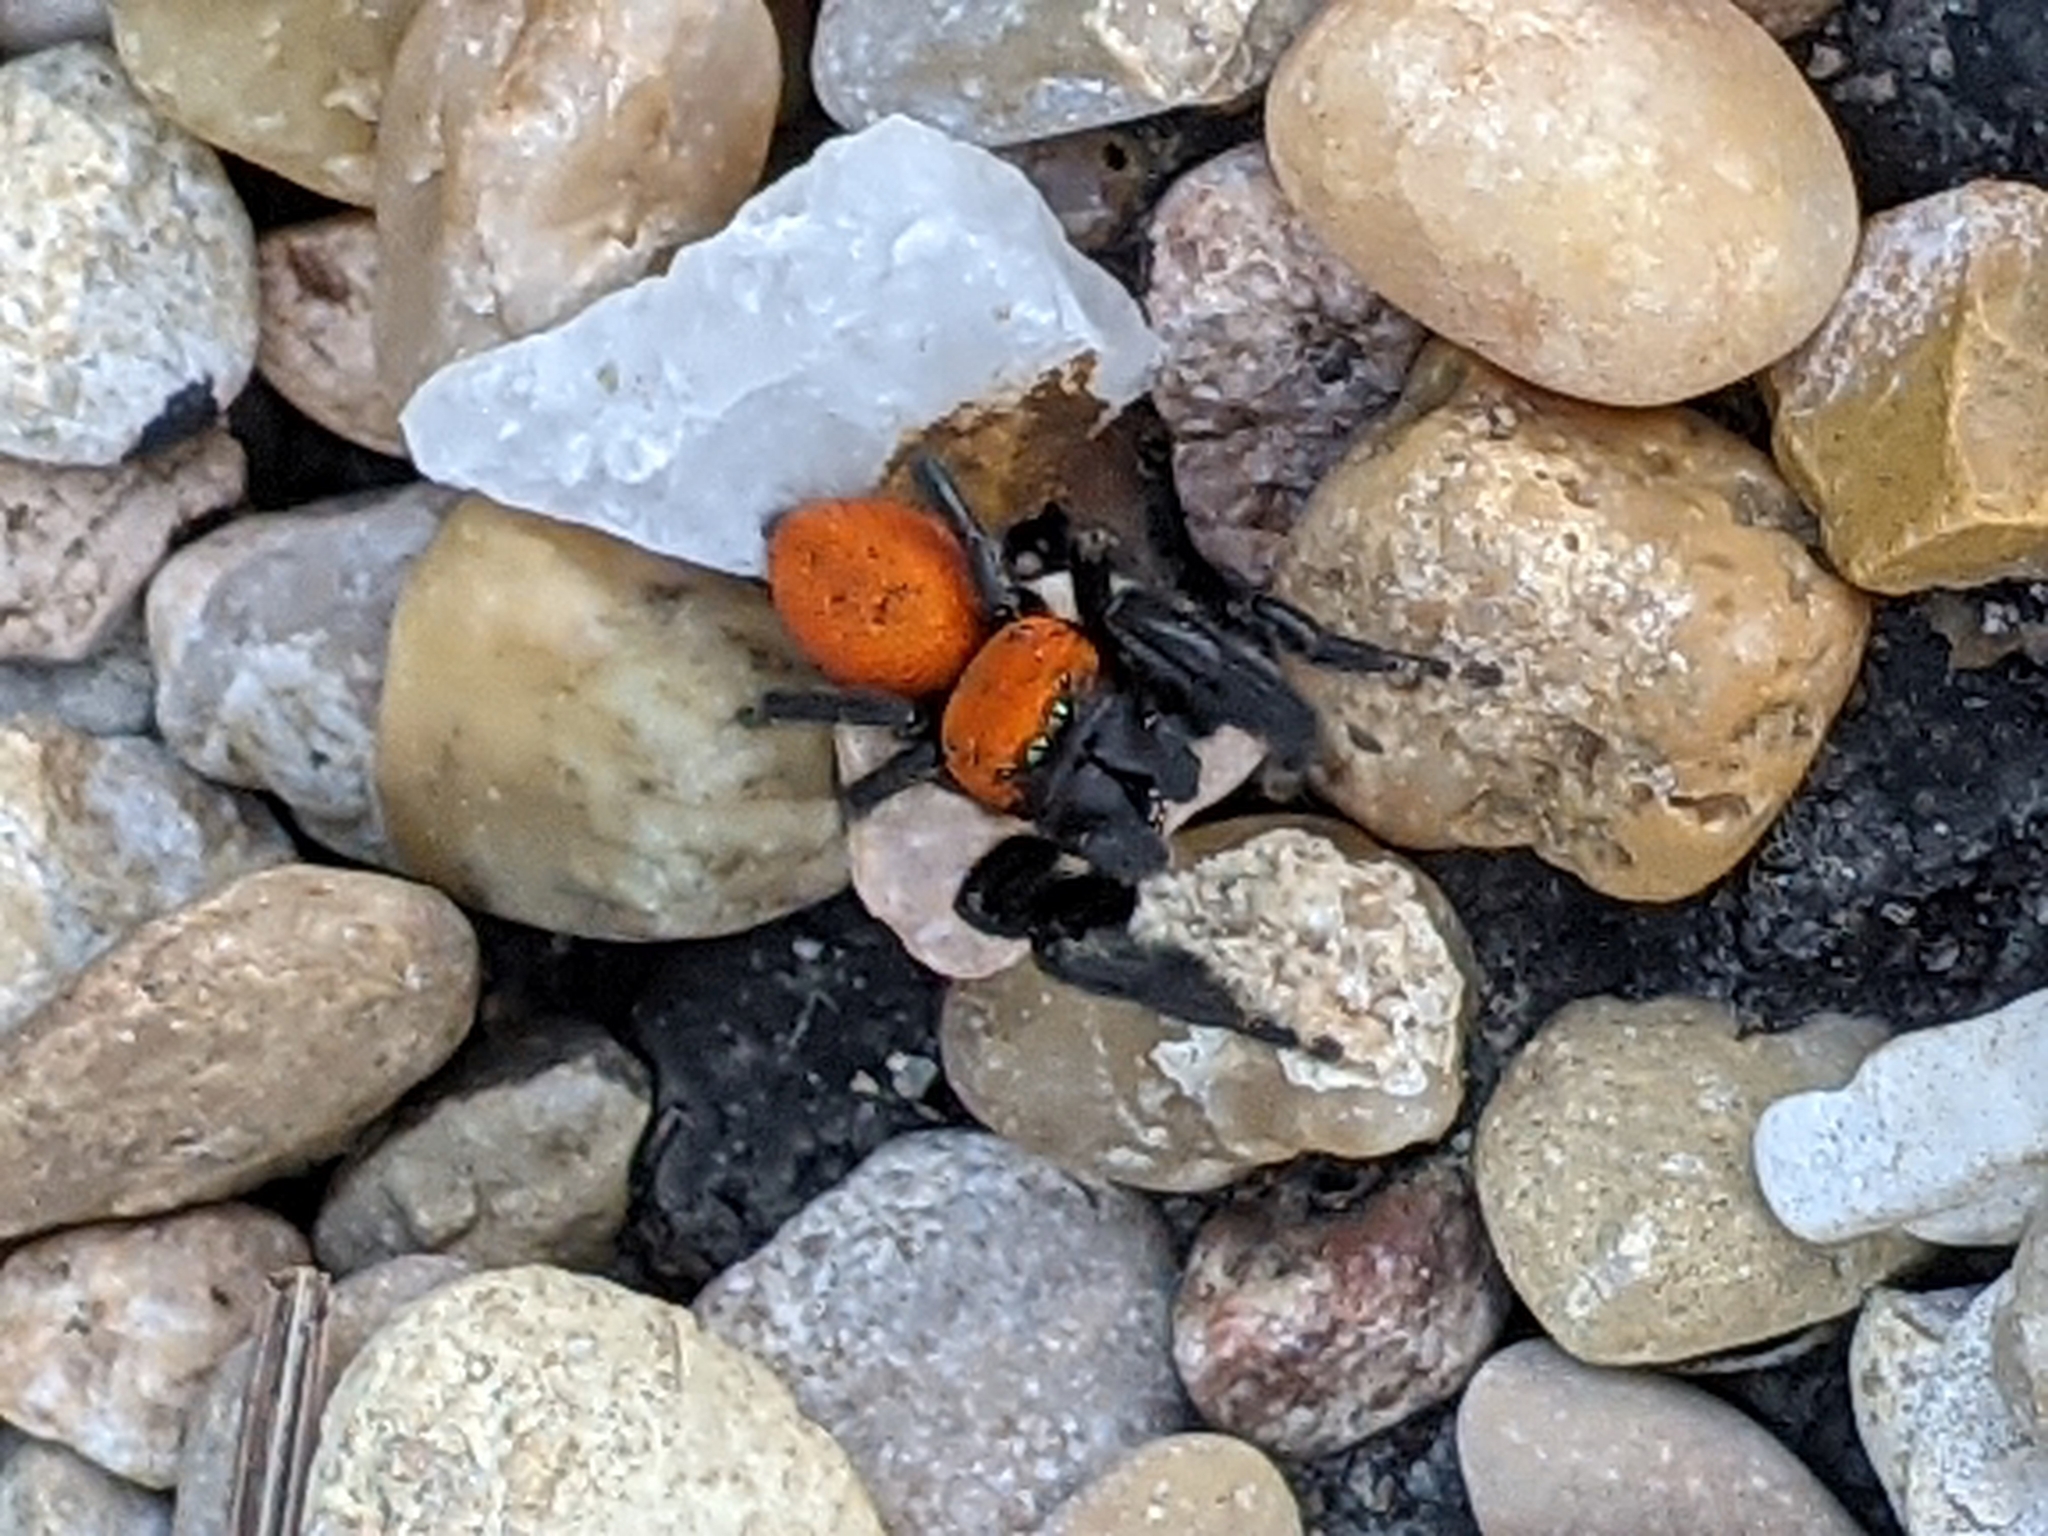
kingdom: Animalia
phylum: Arthropoda
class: Arachnida
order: Araneae
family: Salticidae
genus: Phidippus
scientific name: Phidippus cardinalis
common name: Cardinal jumper
